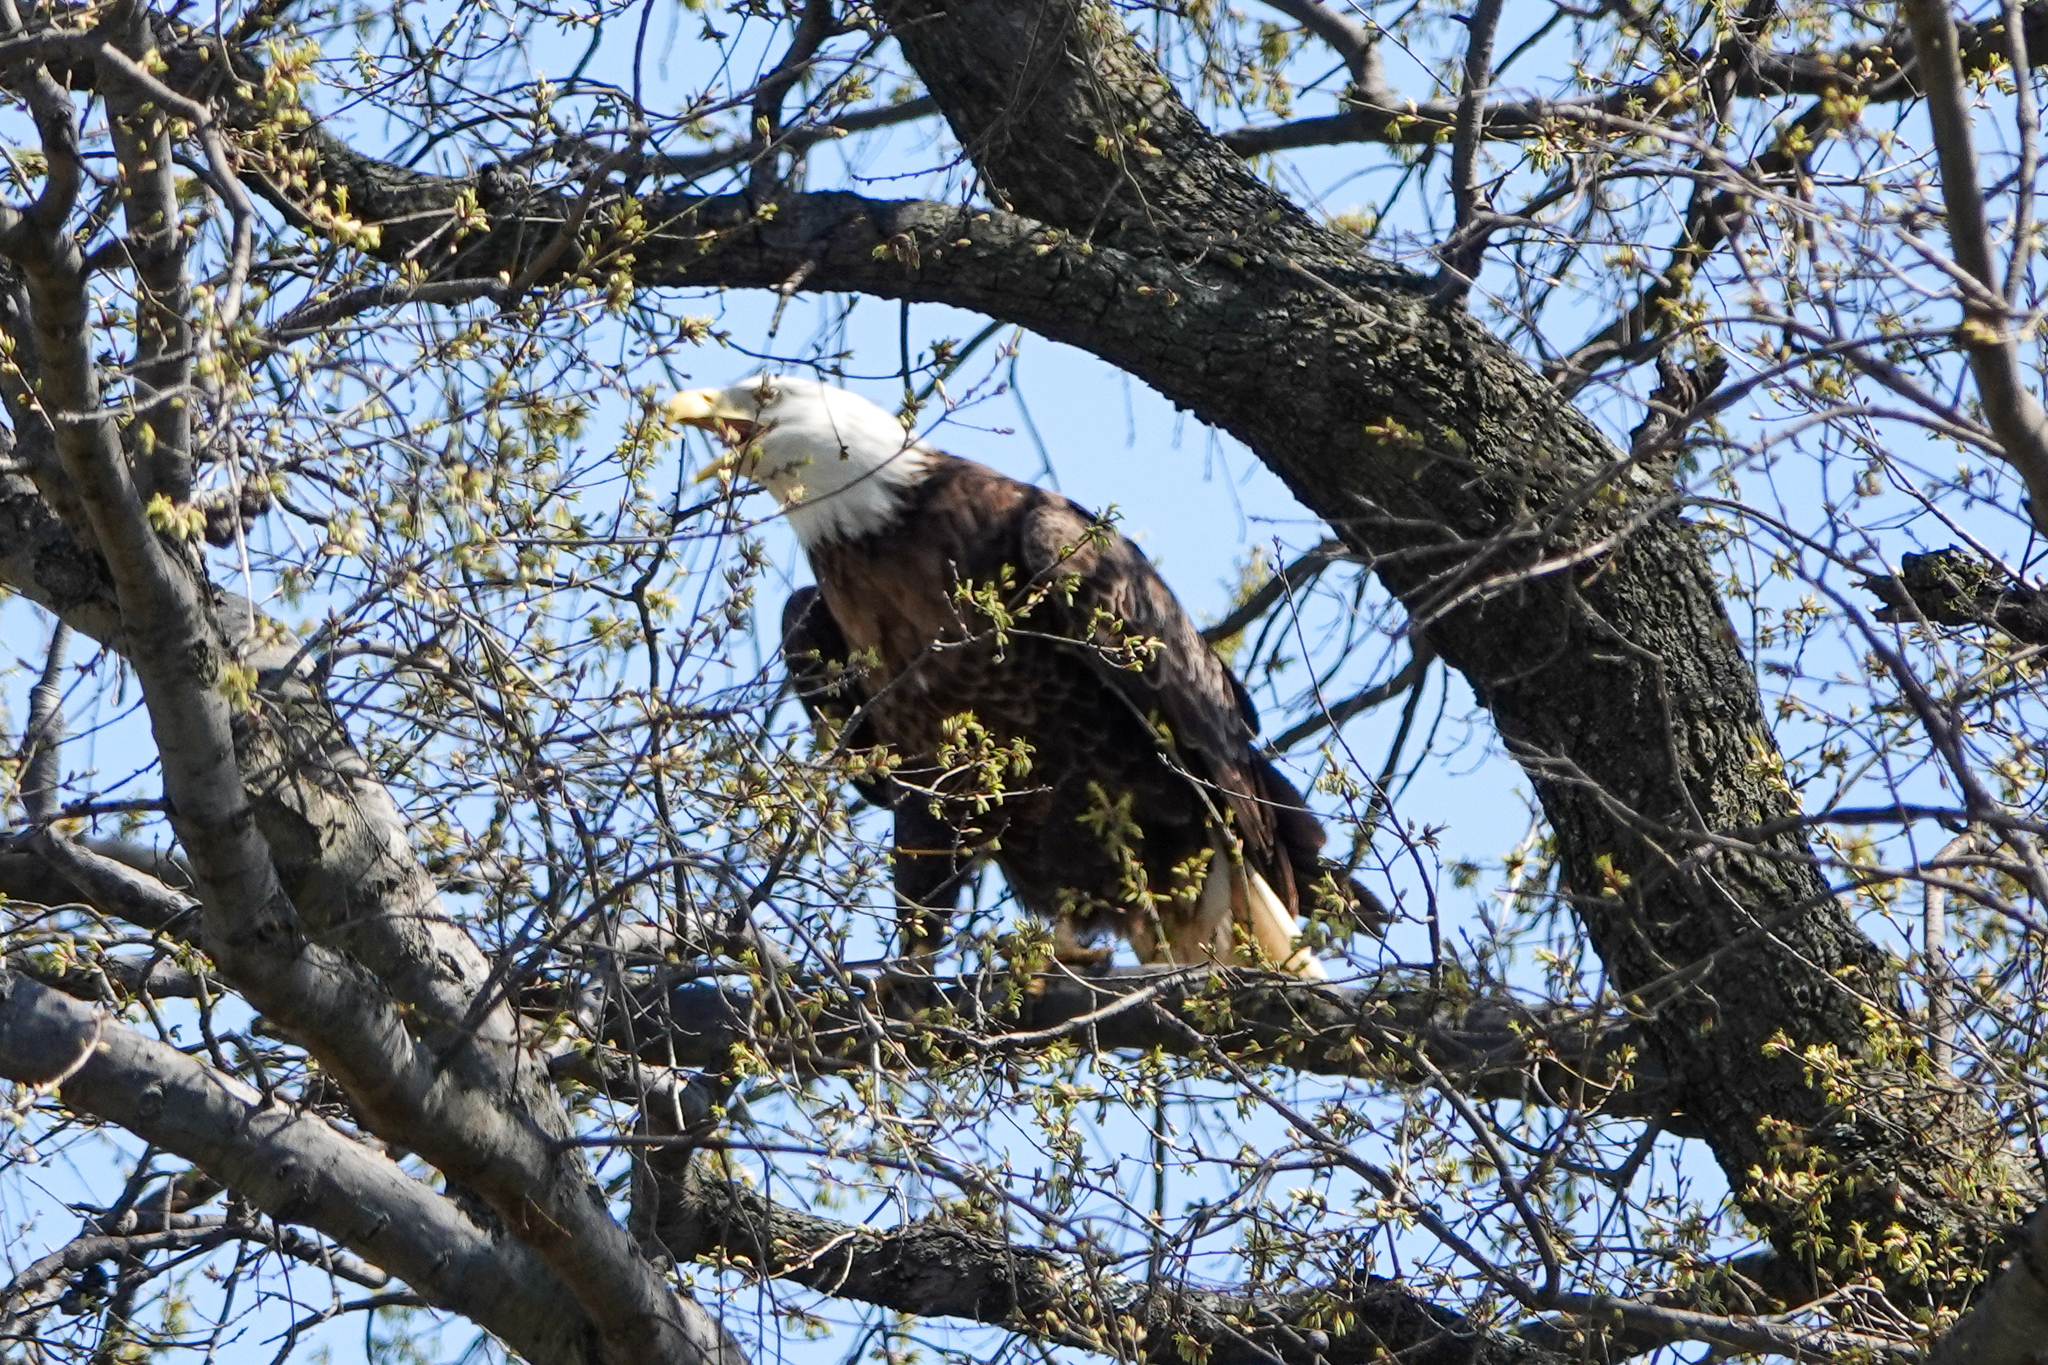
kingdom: Animalia
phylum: Chordata
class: Aves
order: Accipitriformes
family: Accipitridae
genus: Haliaeetus
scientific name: Haliaeetus leucocephalus
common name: Bald eagle
